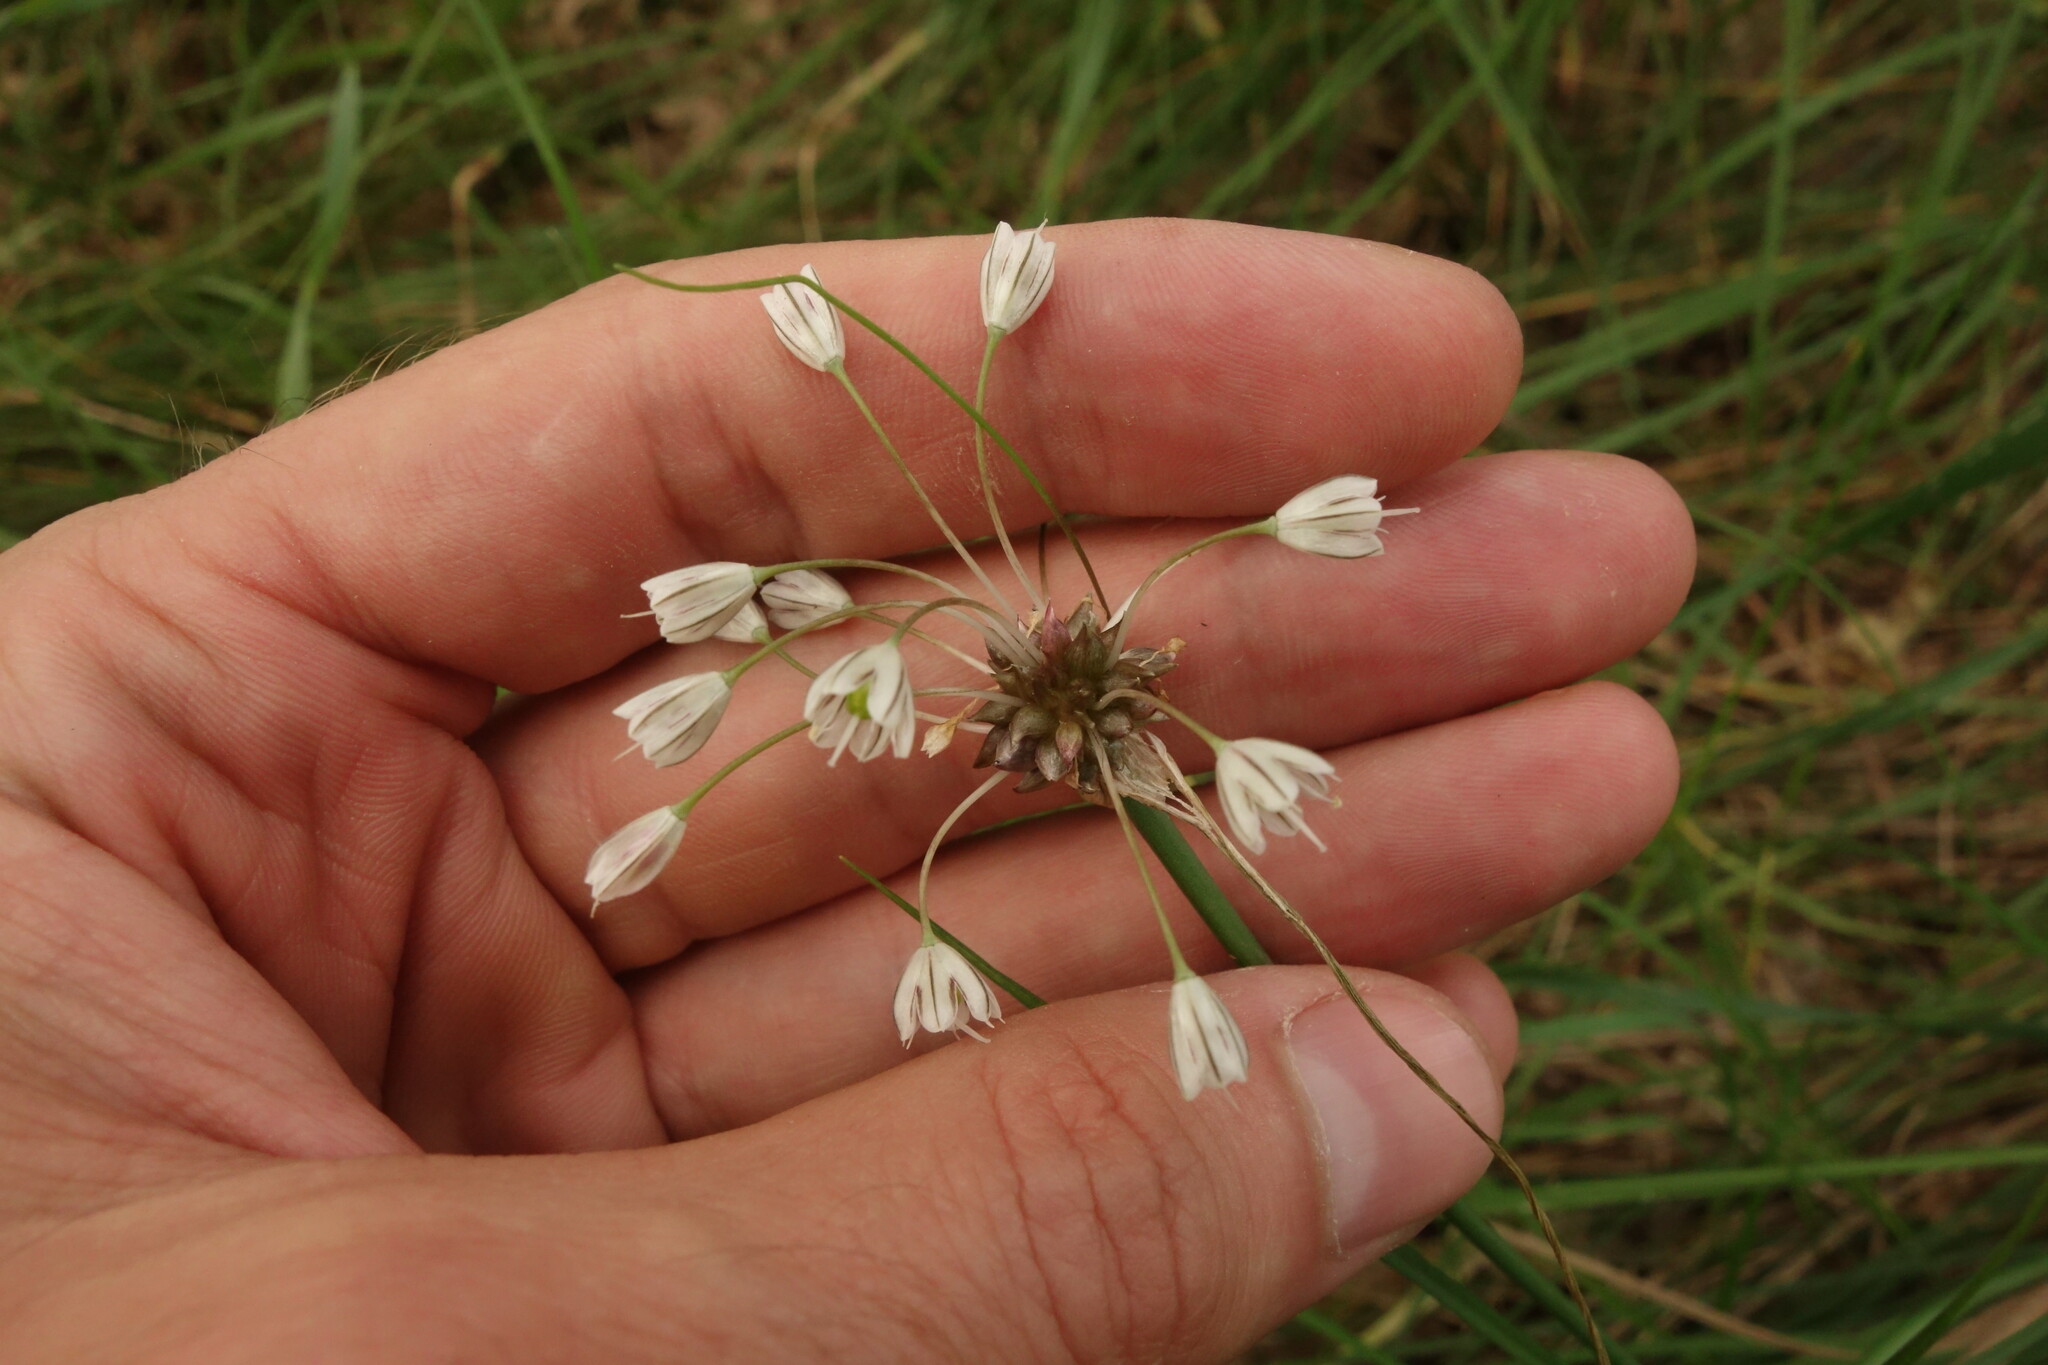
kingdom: Plantae
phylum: Tracheophyta
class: Liliopsida
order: Asparagales
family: Amaryllidaceae
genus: Allium
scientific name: Allium oleraceum
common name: Field garlic
